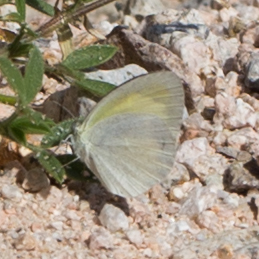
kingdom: Animalia
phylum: Arthropoda
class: Insecta
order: Lepidoptera
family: Pieridae
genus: Eurema
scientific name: Eurema daira
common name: Barred sulphur
